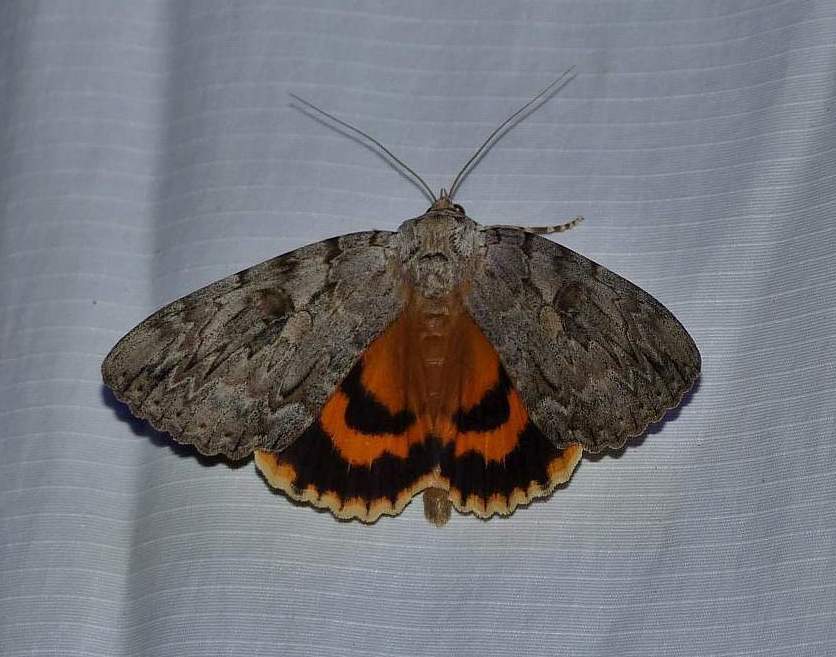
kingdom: Animalia
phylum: Arthropoda
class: Insecta
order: Lepidoptera
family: Erebidae
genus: Catocala
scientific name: Catocala subnata
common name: Youthful underwing
